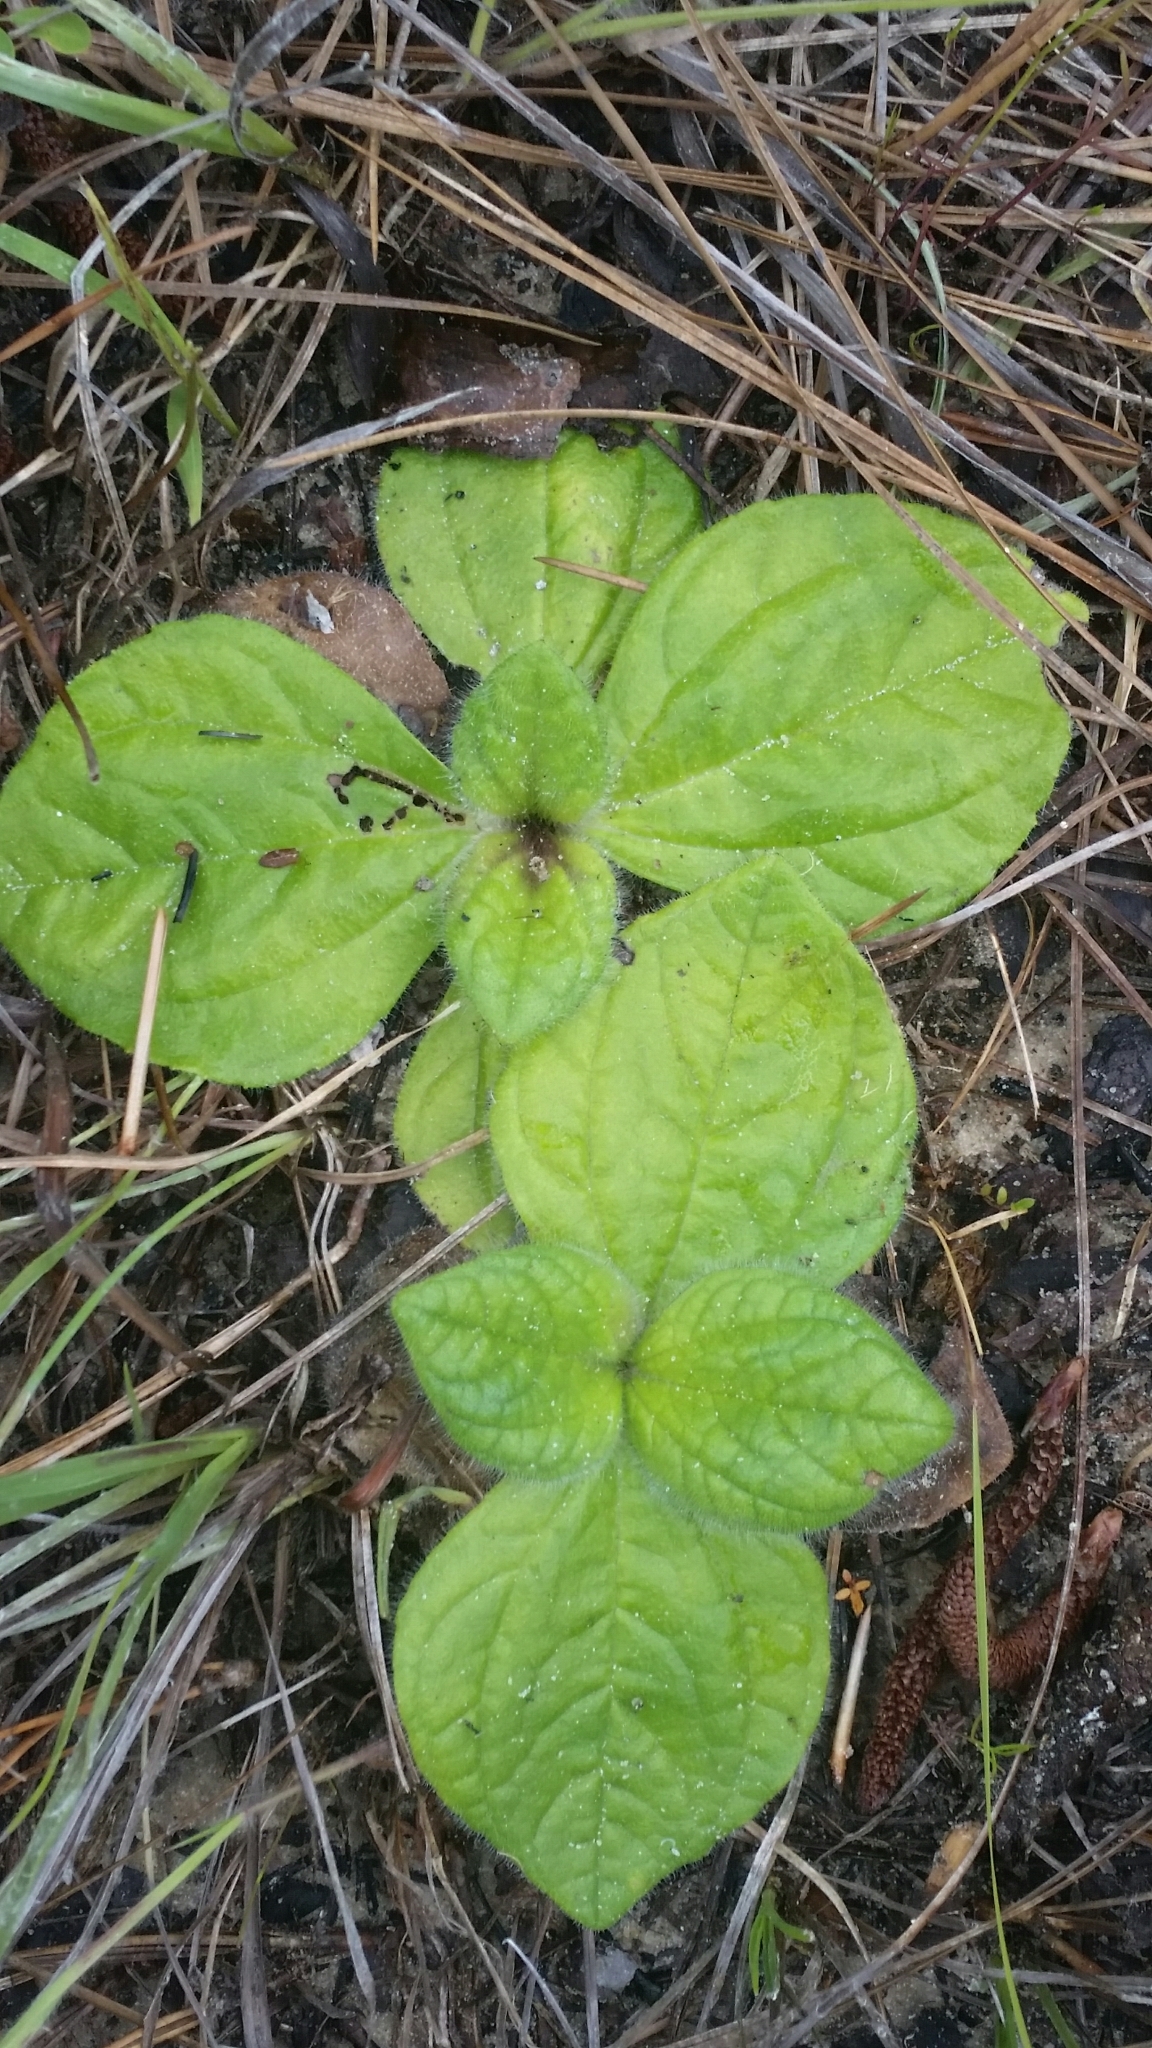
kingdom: Plantae
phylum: Tracheophyta
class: Magnoliopsida
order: Asterales
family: Asteraceae
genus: Helianthus
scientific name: Helianthus radula
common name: Pineland sunflower
